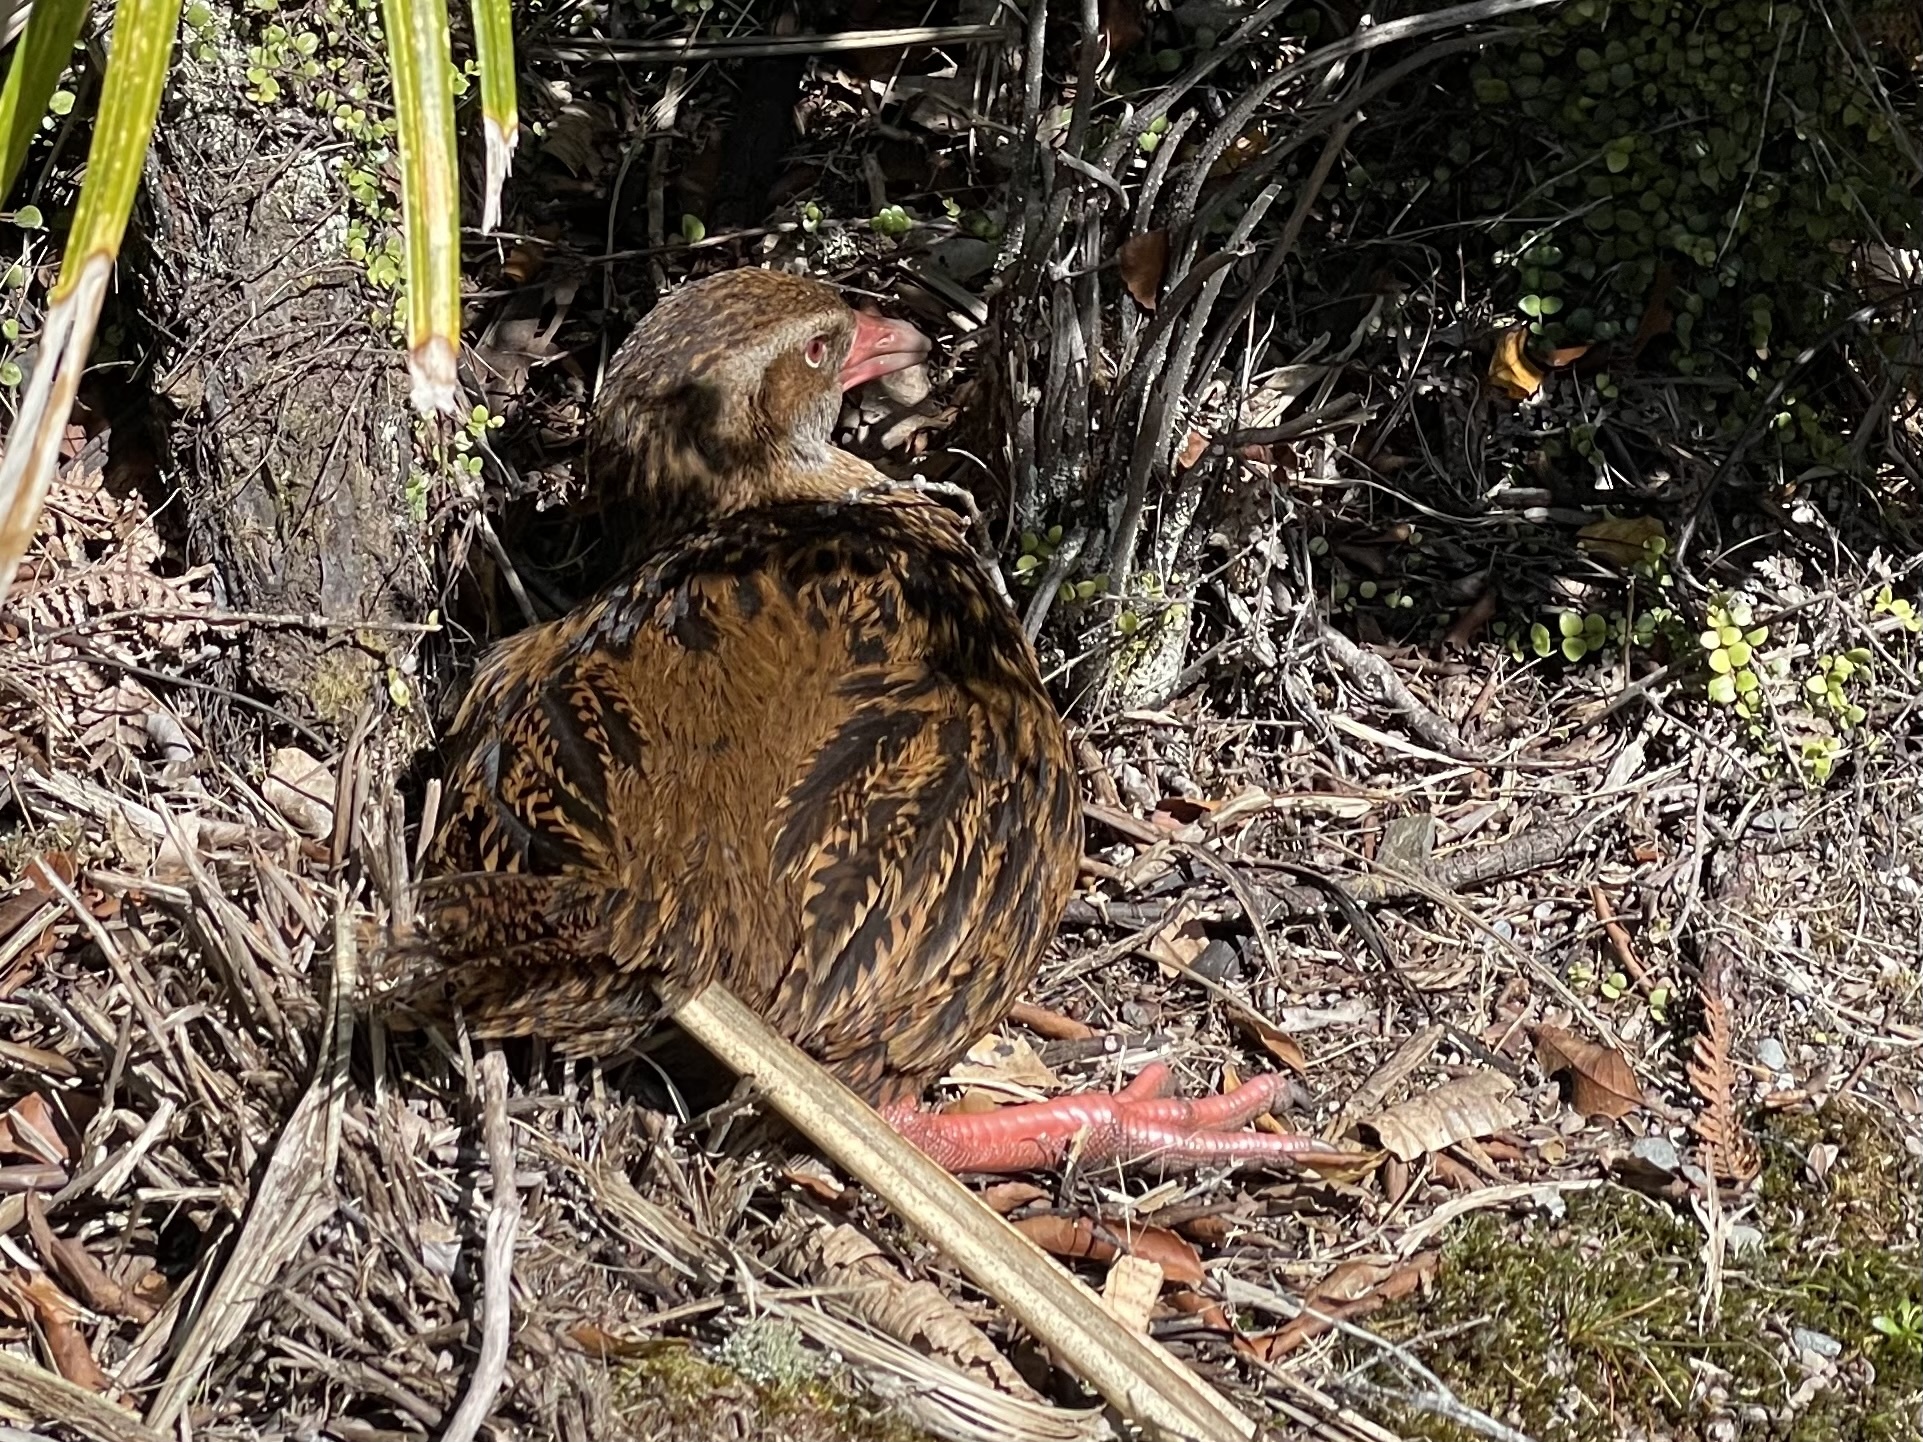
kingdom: Animalia
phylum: Chordata
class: Aves
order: Gruiformes
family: Rallidae
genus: Gallirallus
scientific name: Gallirallus australis
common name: Weka
